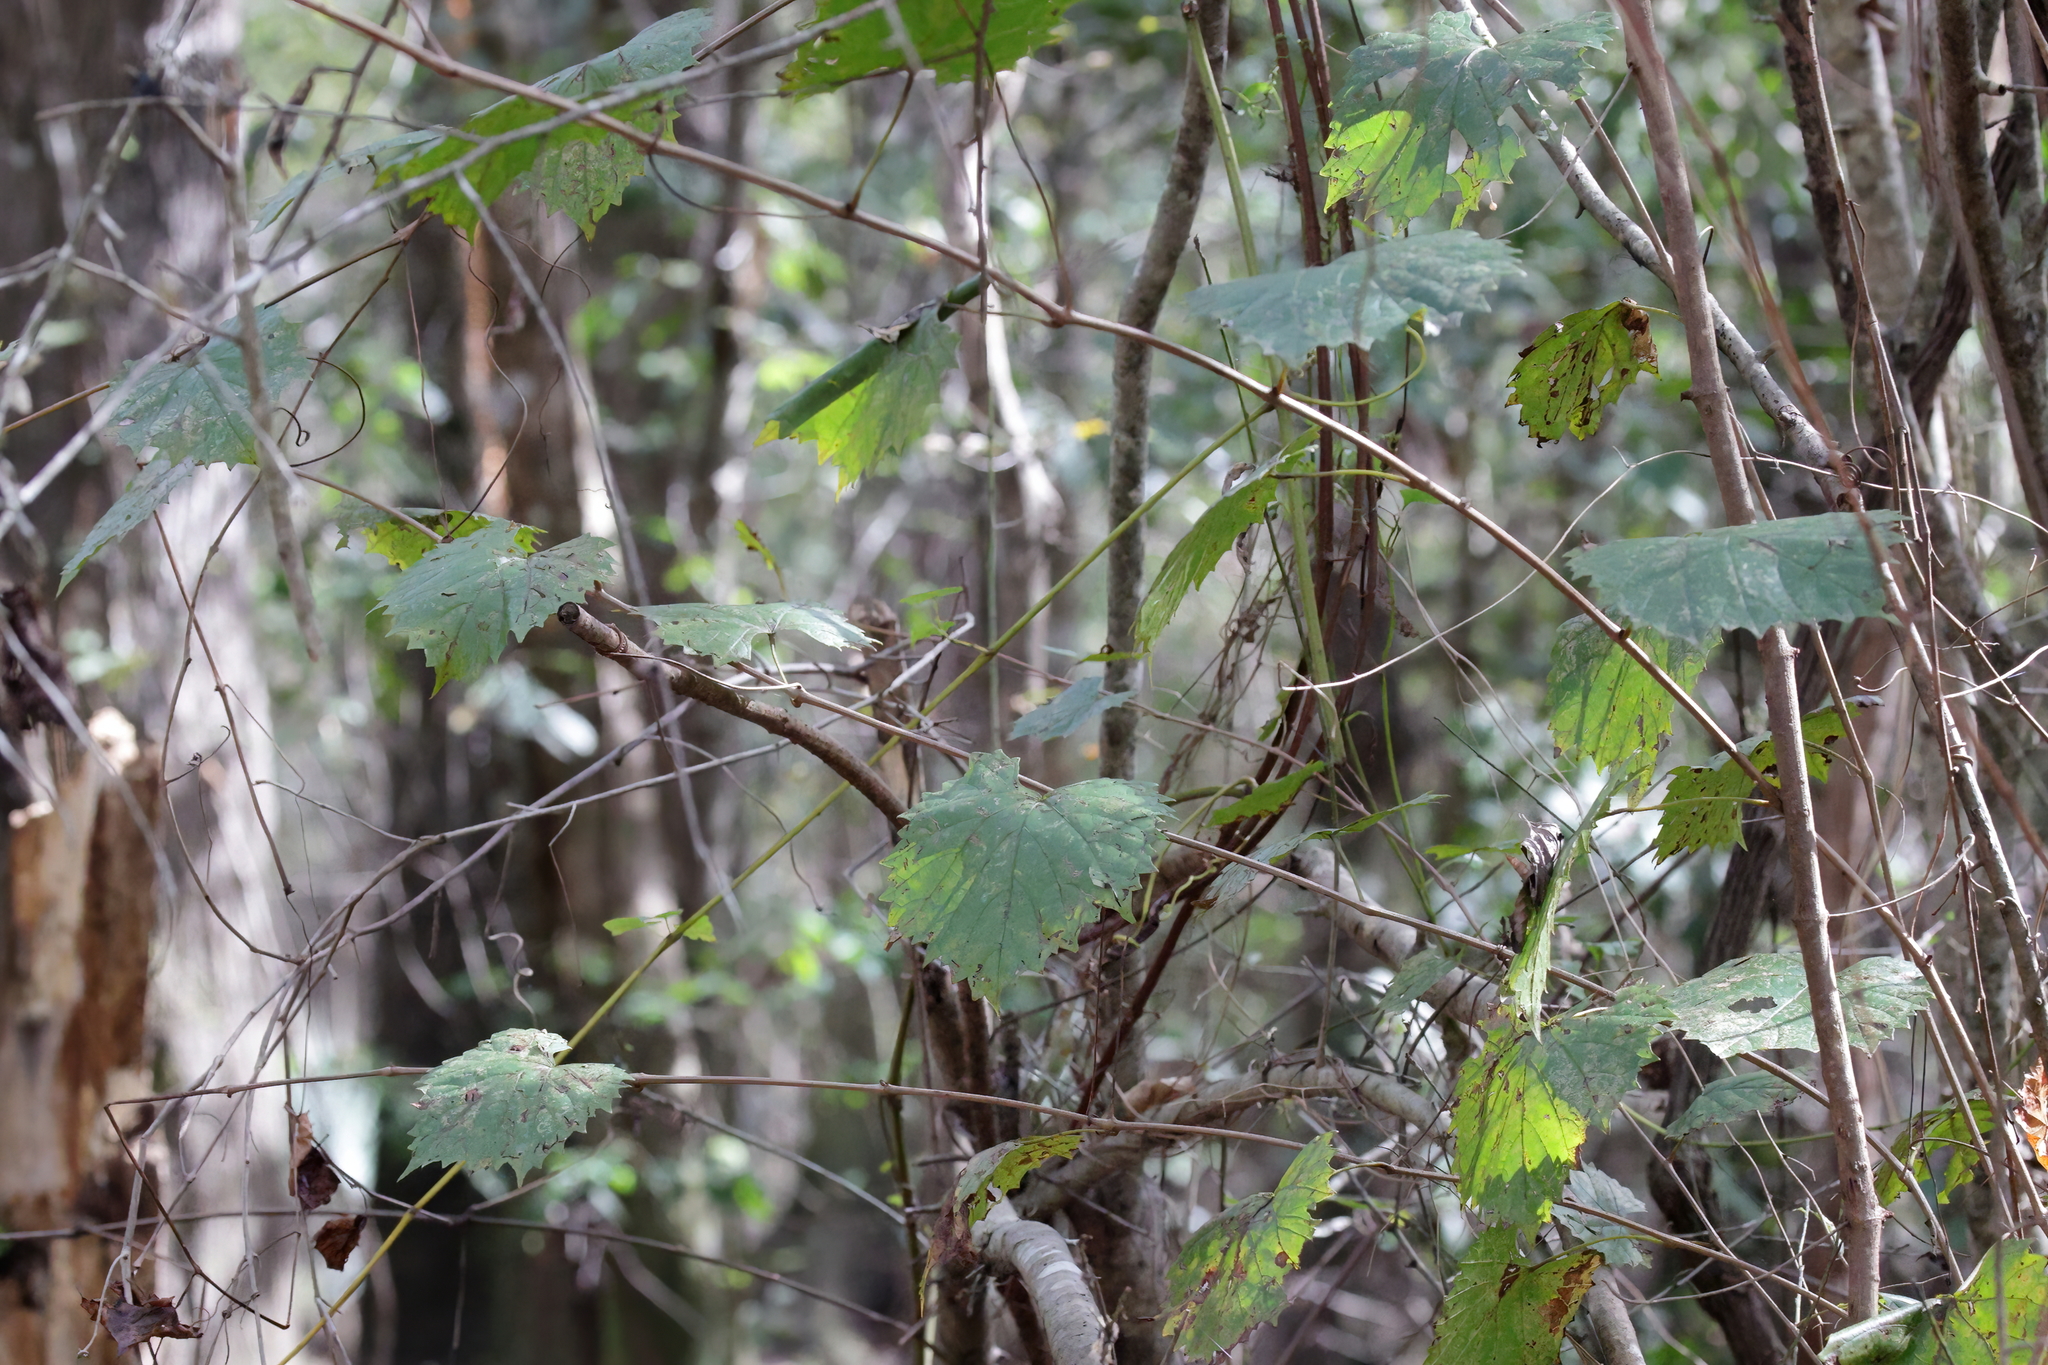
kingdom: Plantae
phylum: Tracheophyta
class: Magnoliopsida
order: Vitales
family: Vitaceae
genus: Vitis
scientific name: Vitis rotundifolia
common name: Muscadine grape
